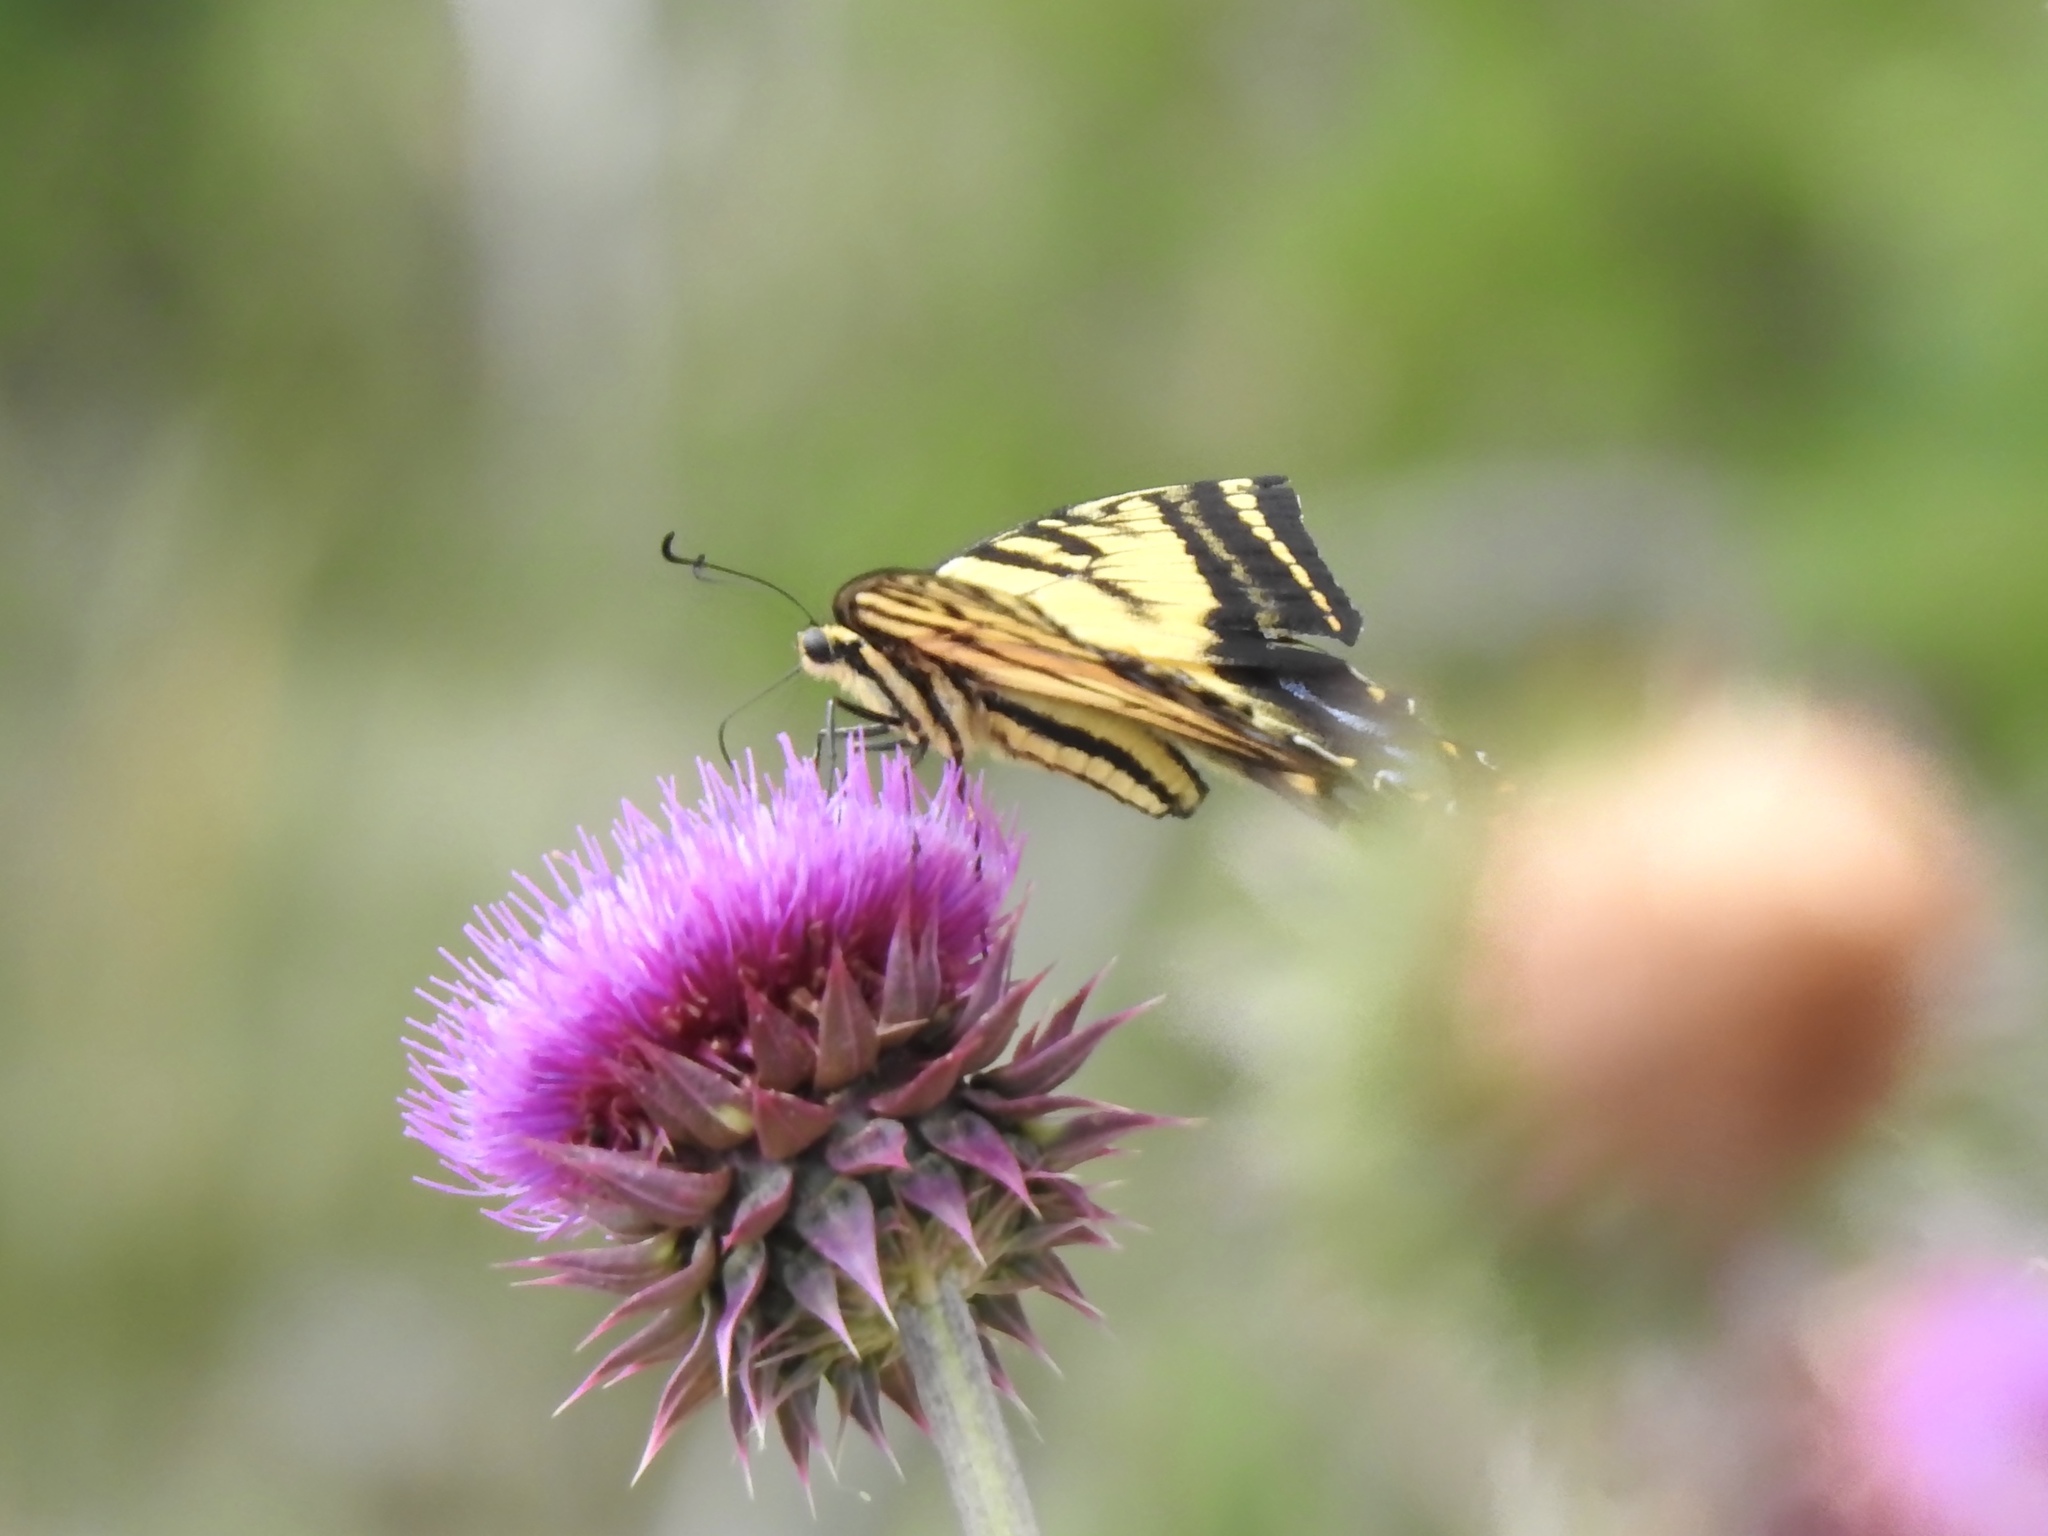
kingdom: Animalia
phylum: Arthropoda
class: Insecta
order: Lepidoptera
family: Papilionidae
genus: Papilio
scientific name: Papilio multicaudata
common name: Two-tailed tiger swallowtail
